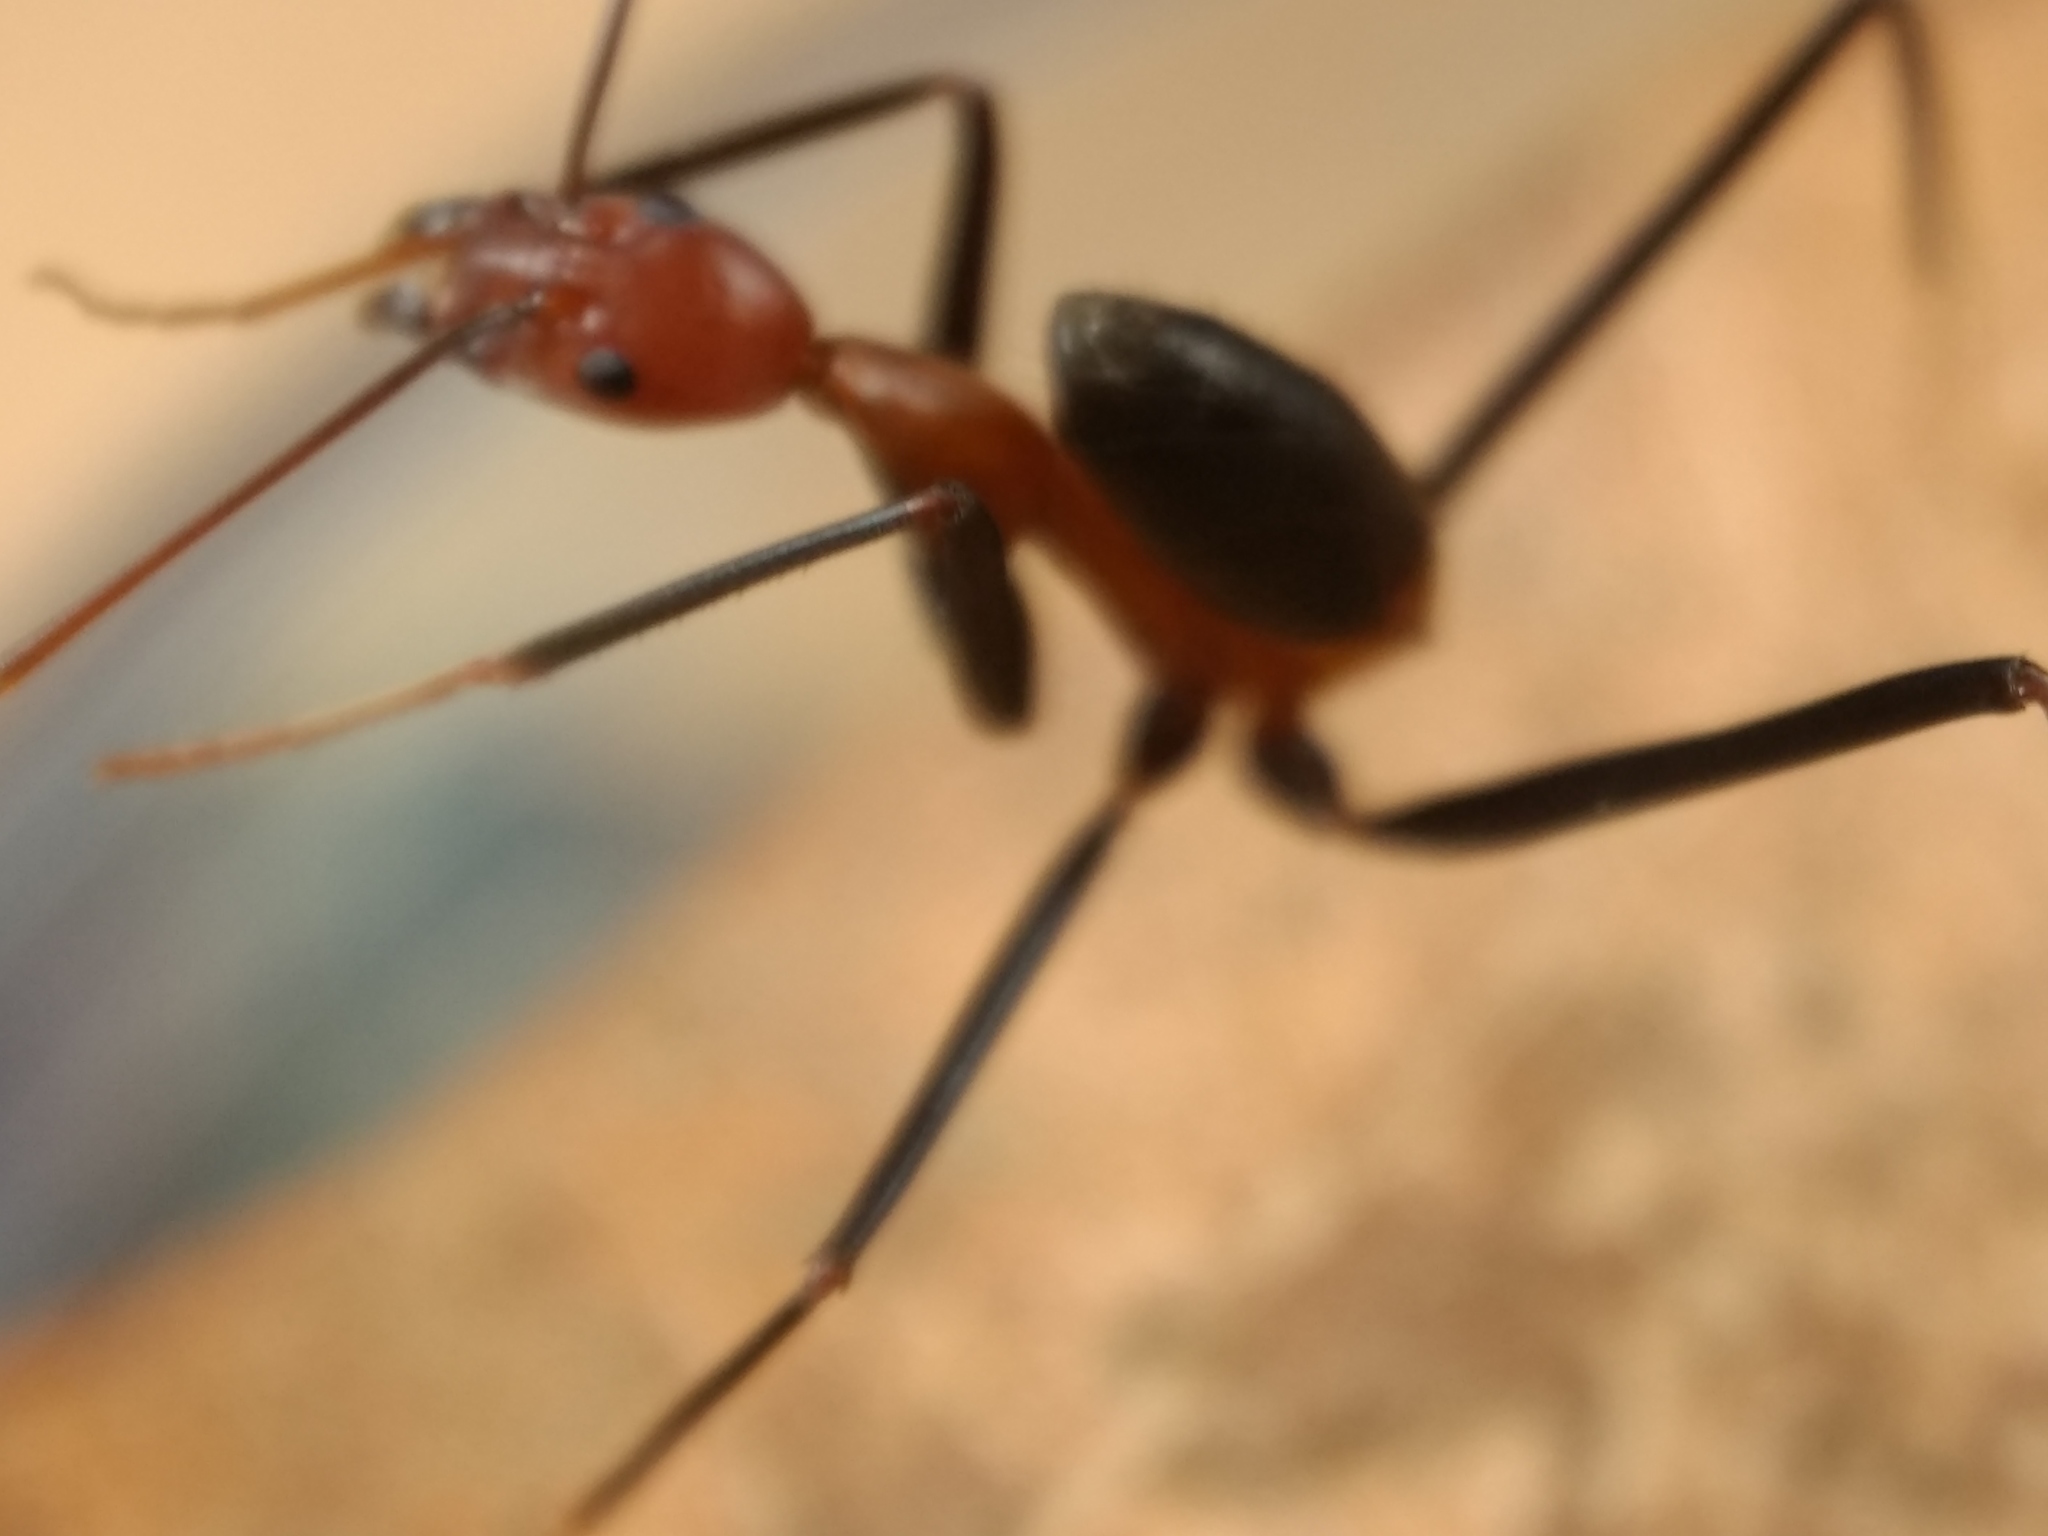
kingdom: Animalia
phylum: Arthropoda
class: Insecta
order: Hymenoptera
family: Formicidae
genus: Leptomyrmex
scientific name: Leptomyrmex rufithorax
